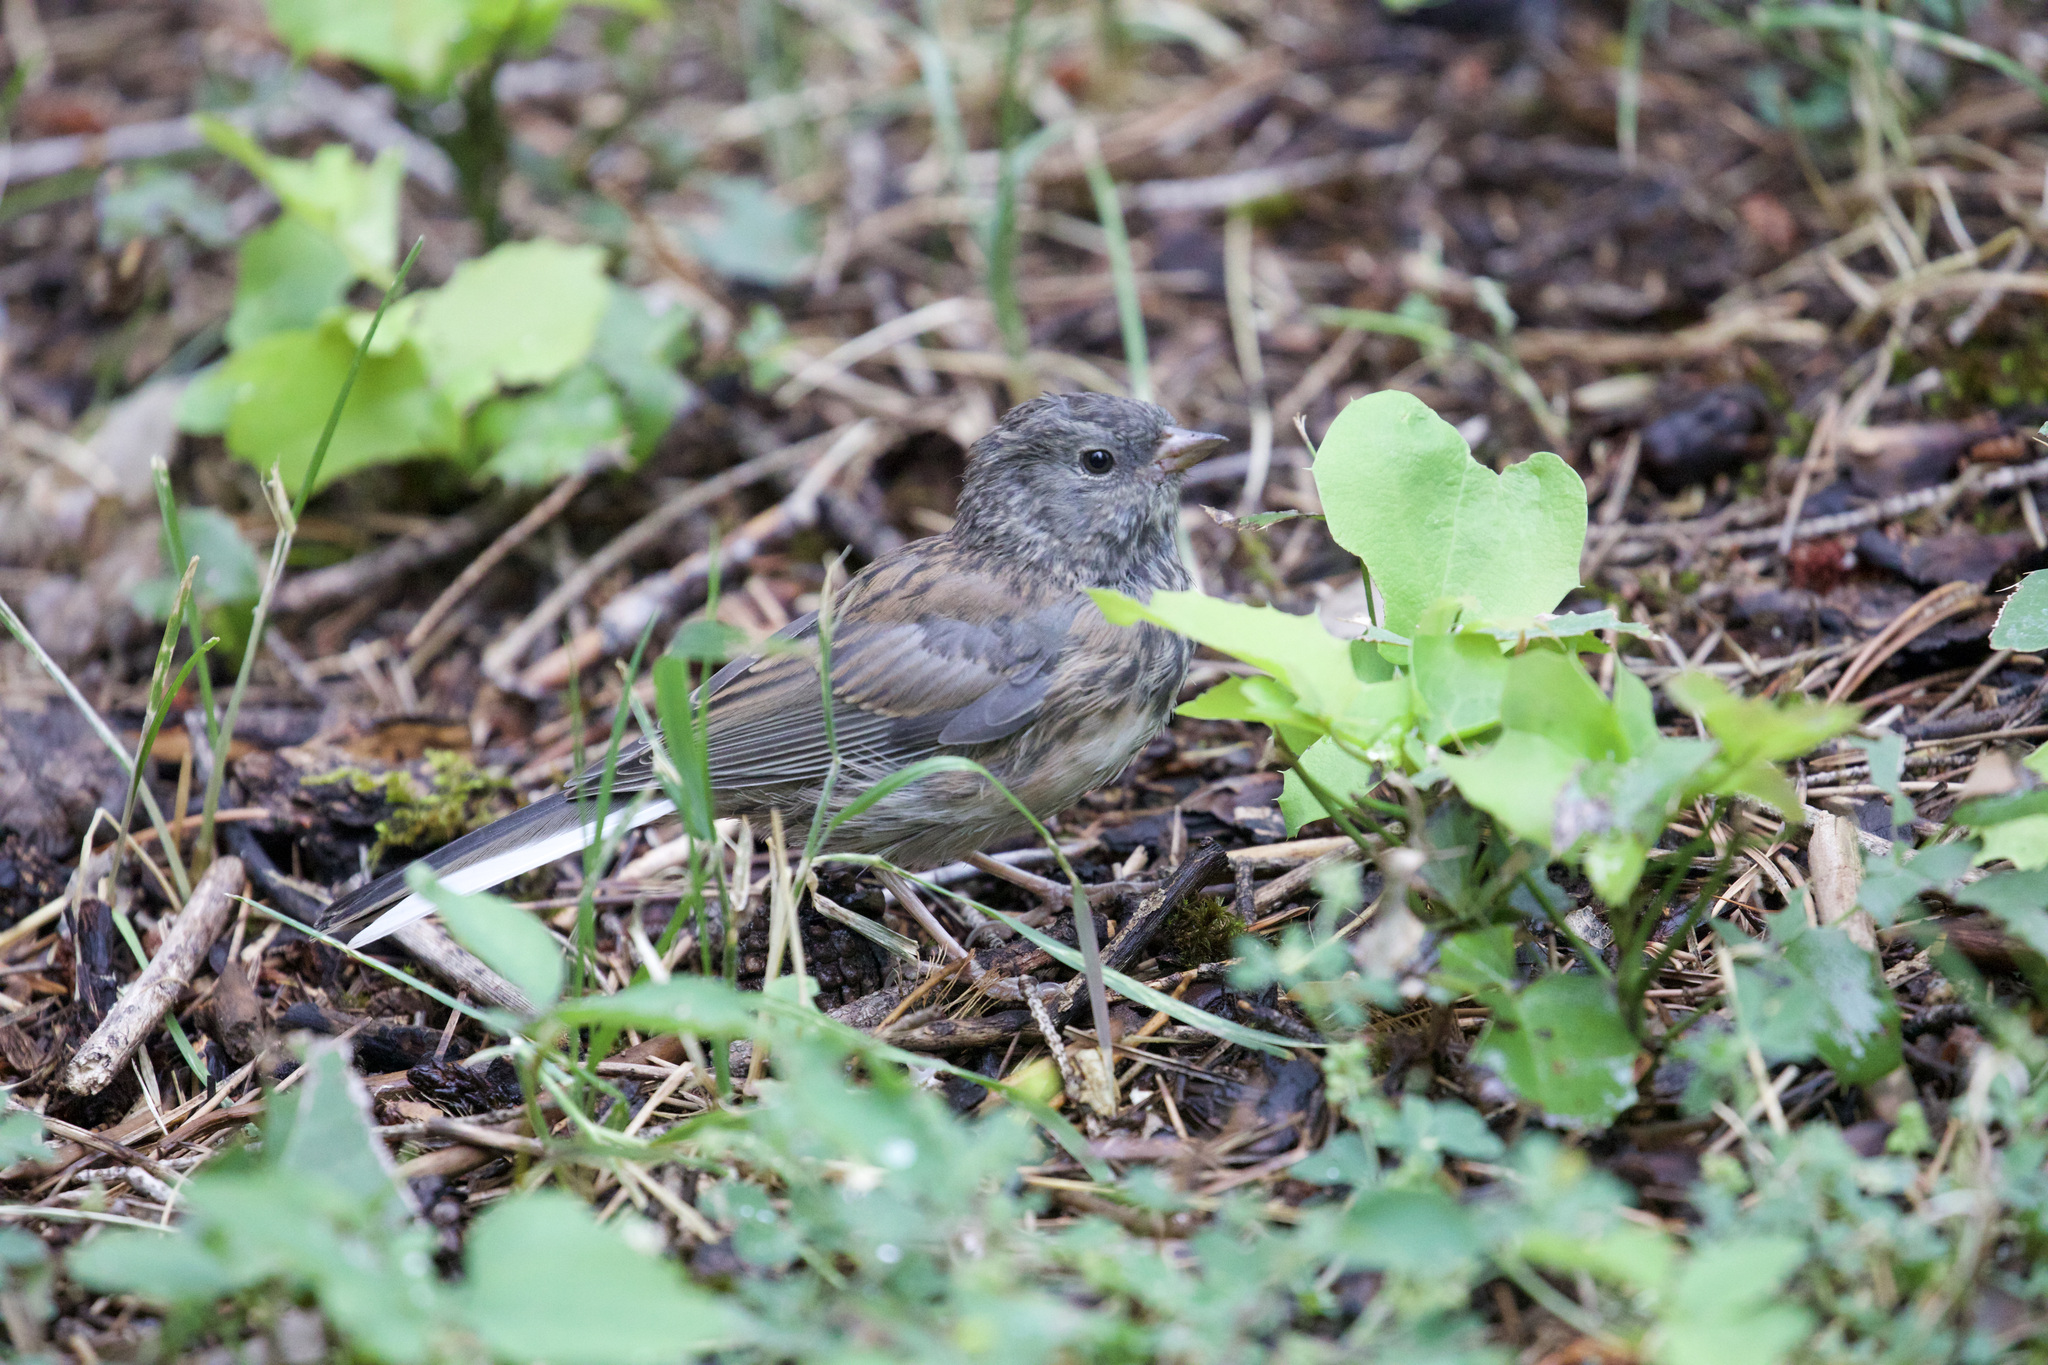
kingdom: Animalia
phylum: Chordata
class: Aves
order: Passeriformes
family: Passerellidae
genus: Junco
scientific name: Junco hyemalis
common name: Dark-eyed junco
